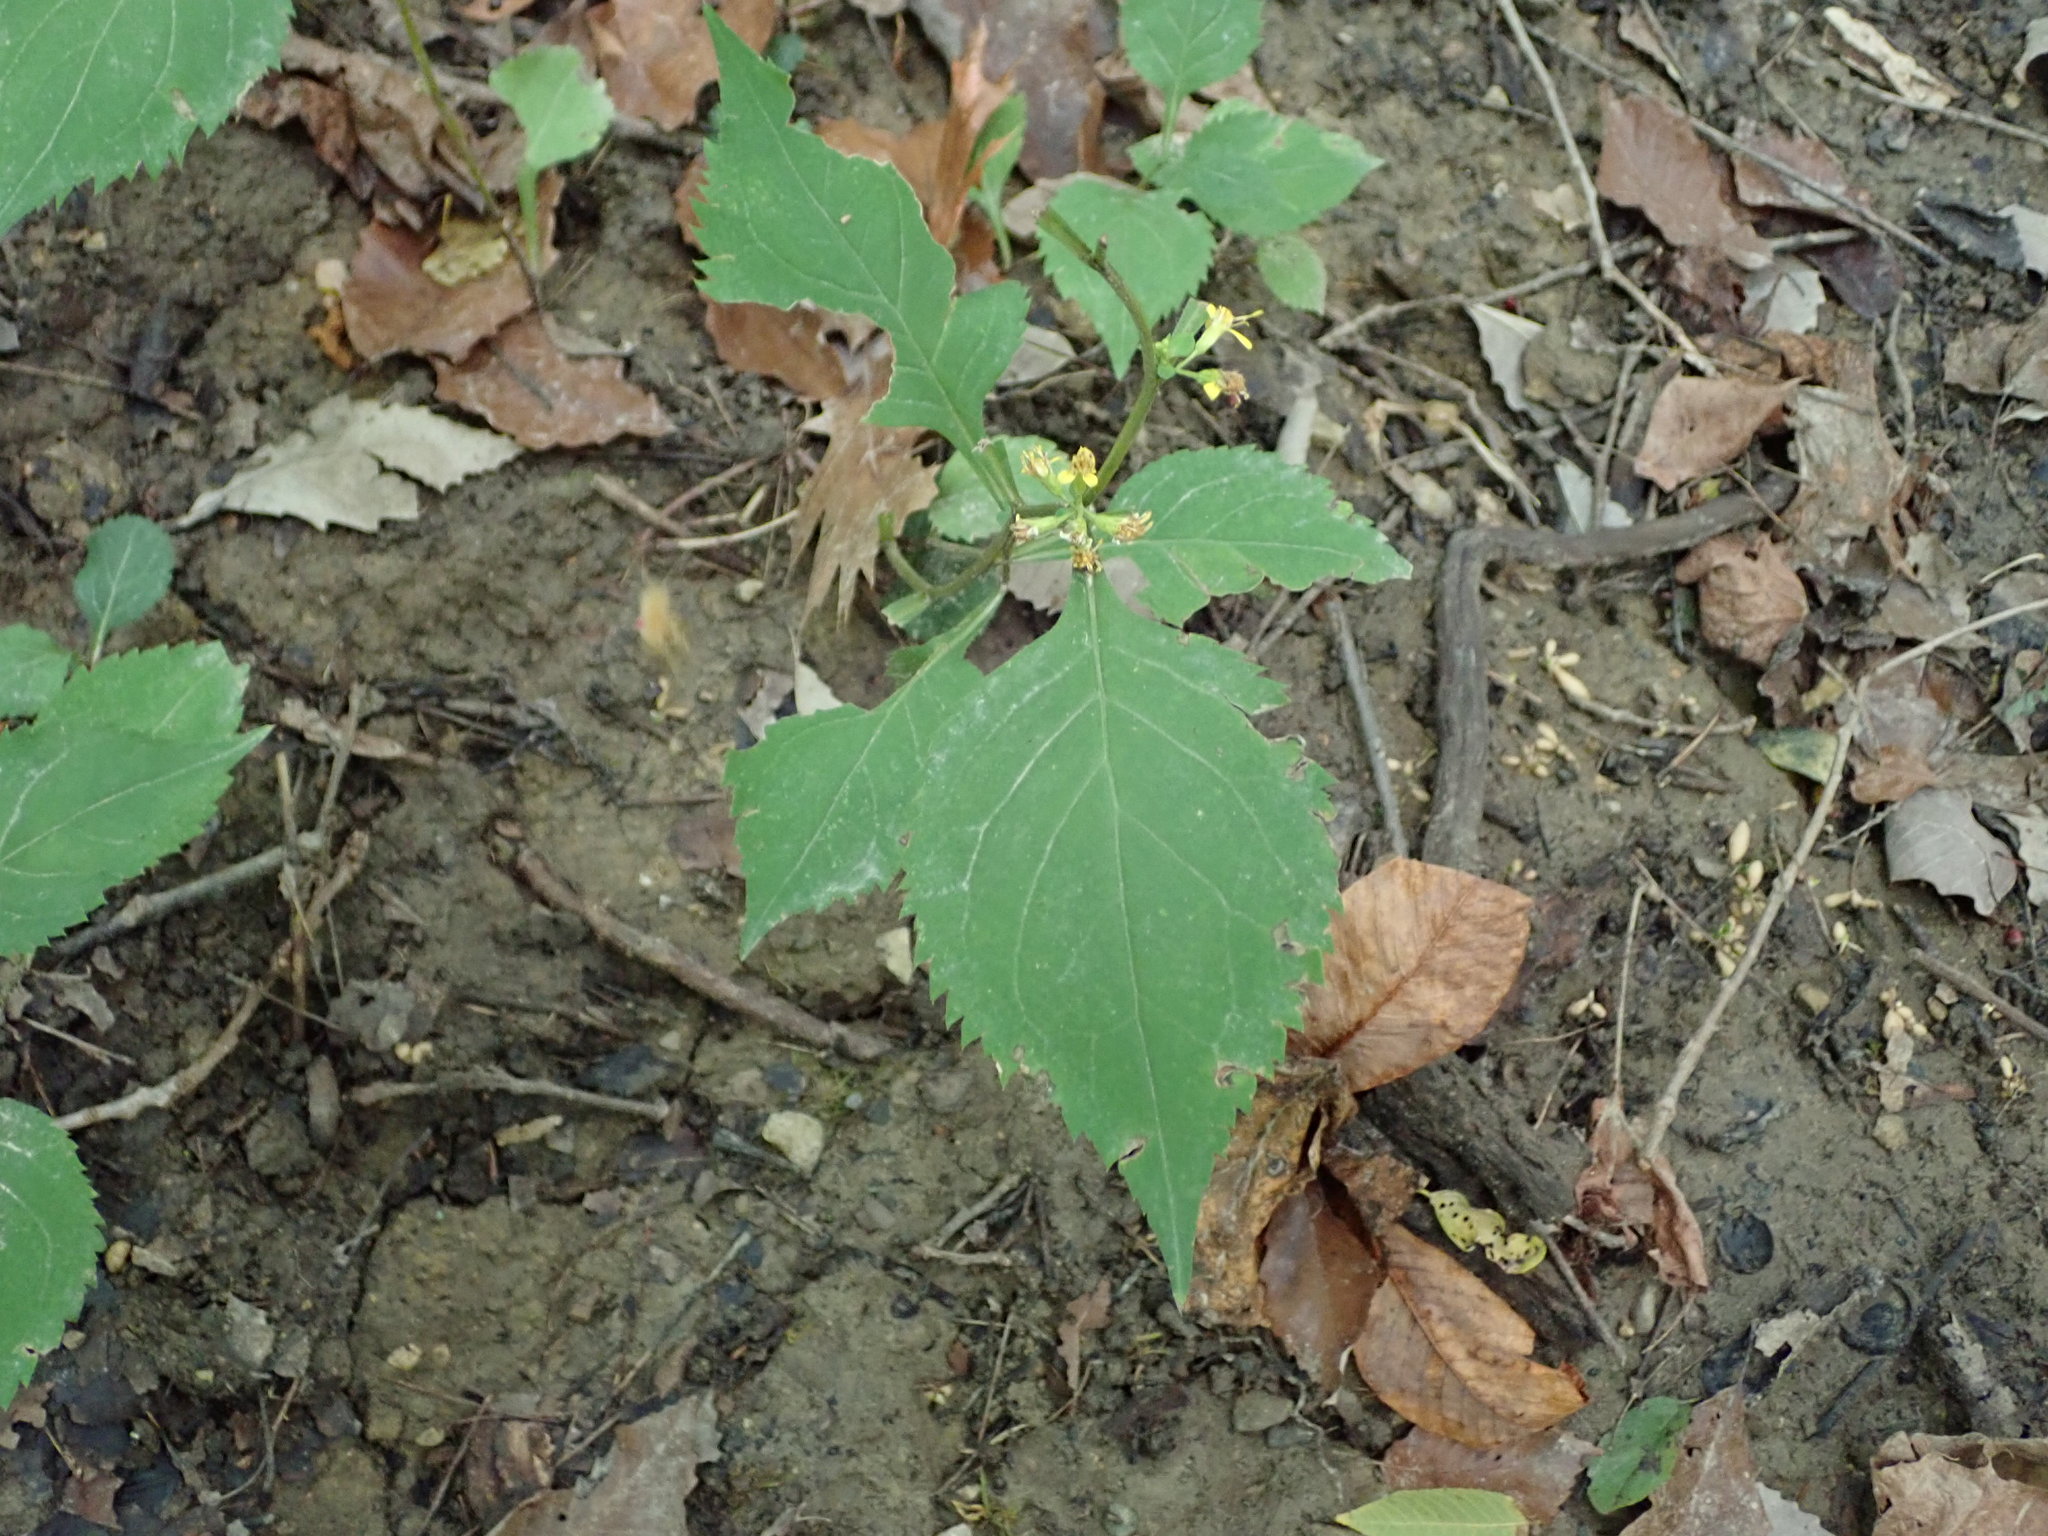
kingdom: Plantae
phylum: Tracheophyta
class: Magnoliopsida
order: Asterales
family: Asteraceae
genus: Solidago
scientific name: Solidago flexicaulis
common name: Zig-zag goldenrod
